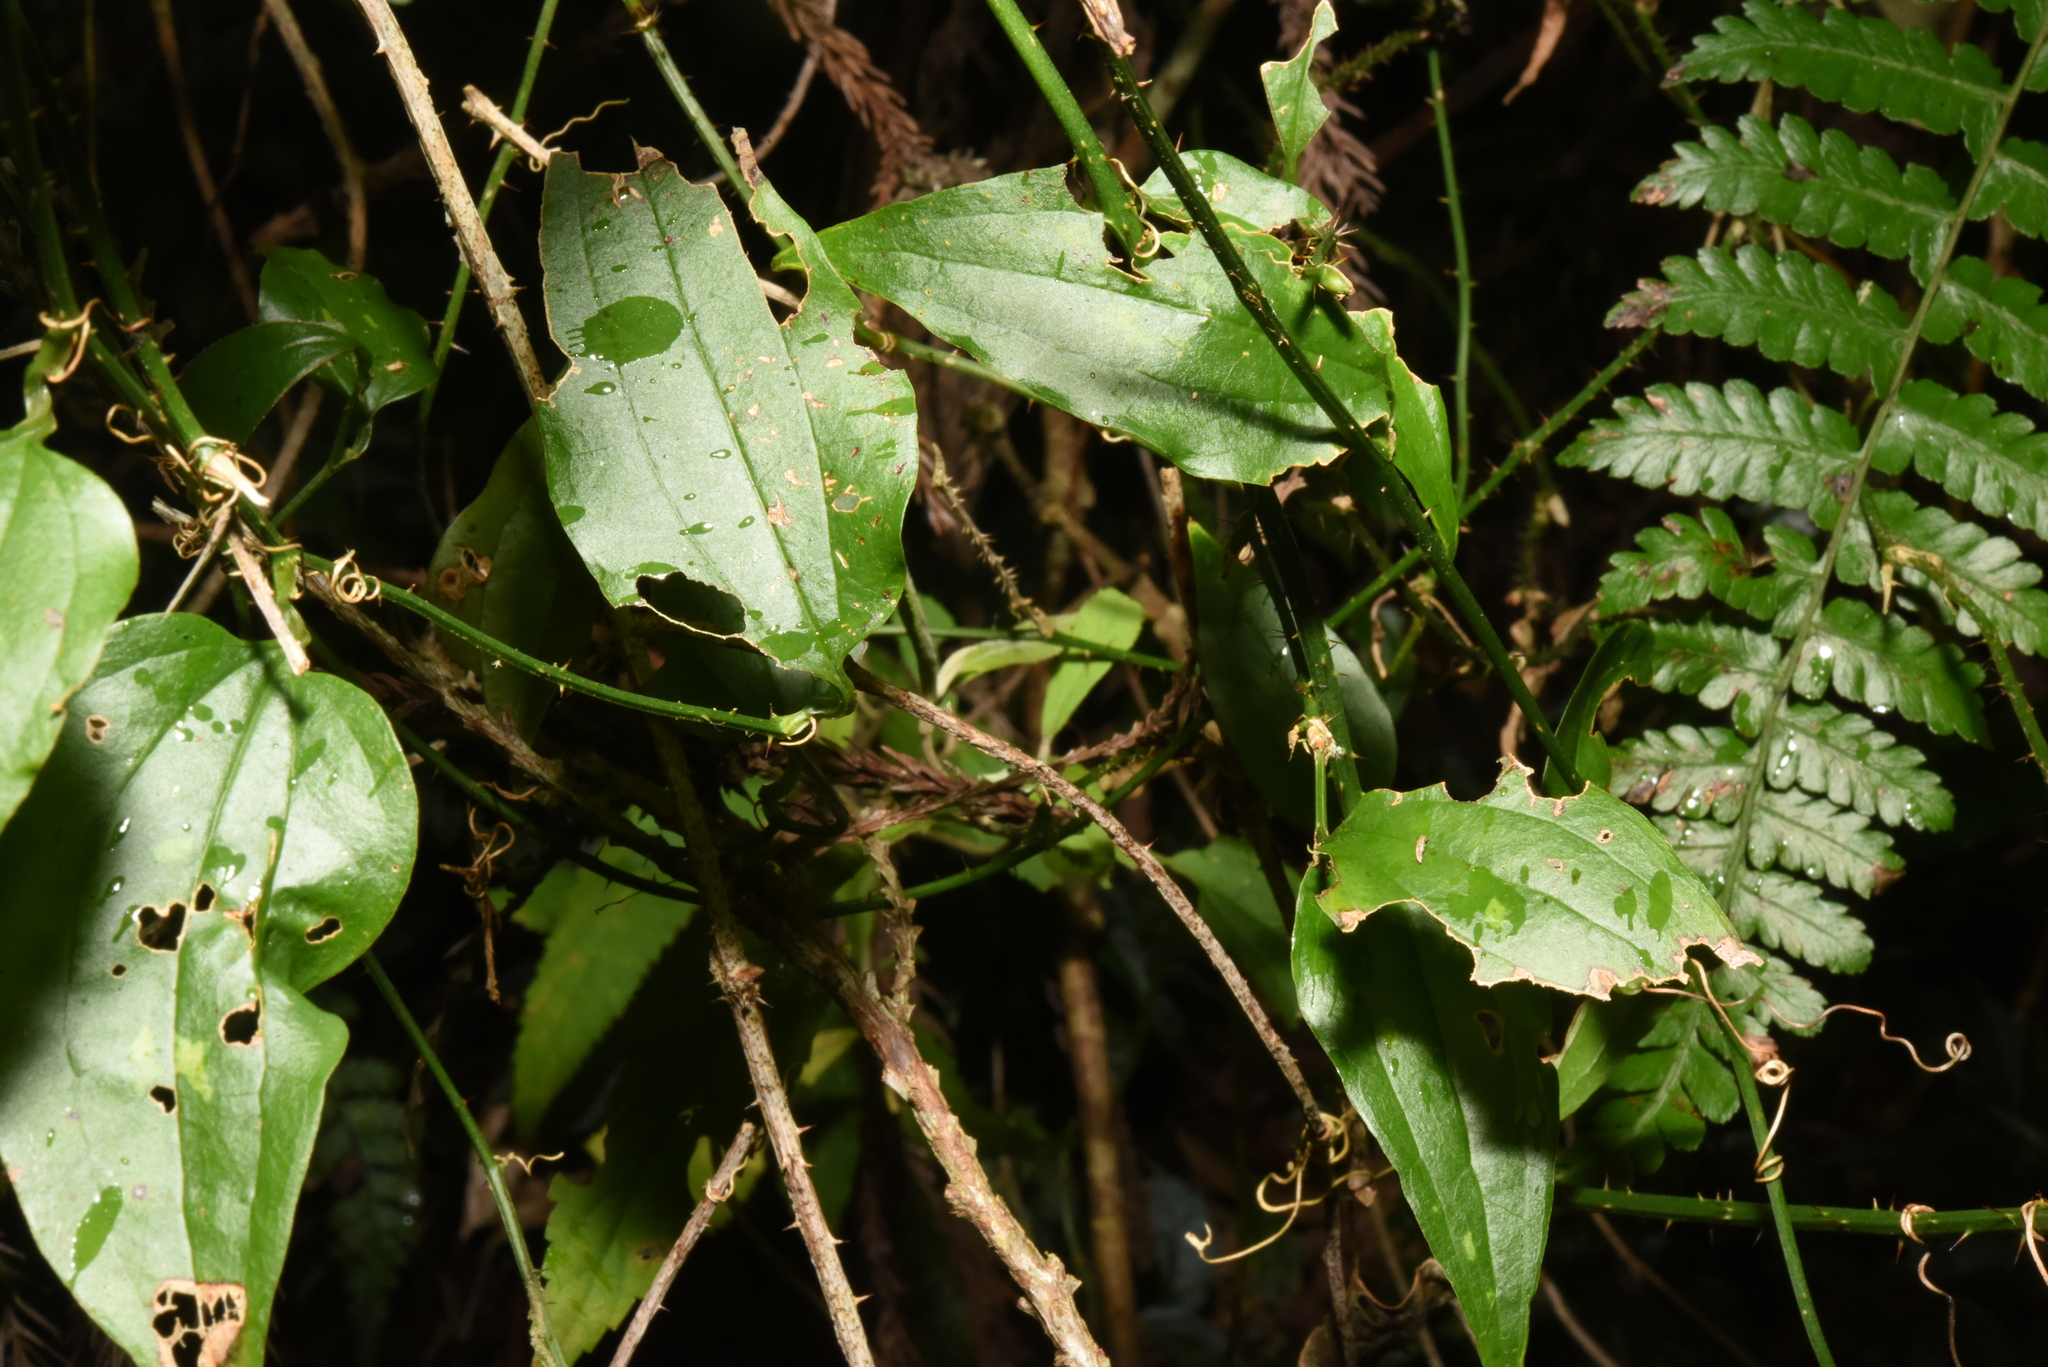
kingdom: Plantae
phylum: Tracheophyta
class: Liliopsida
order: Liliales
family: Smilacaceae
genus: Smilax
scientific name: Smilax sieboldii
